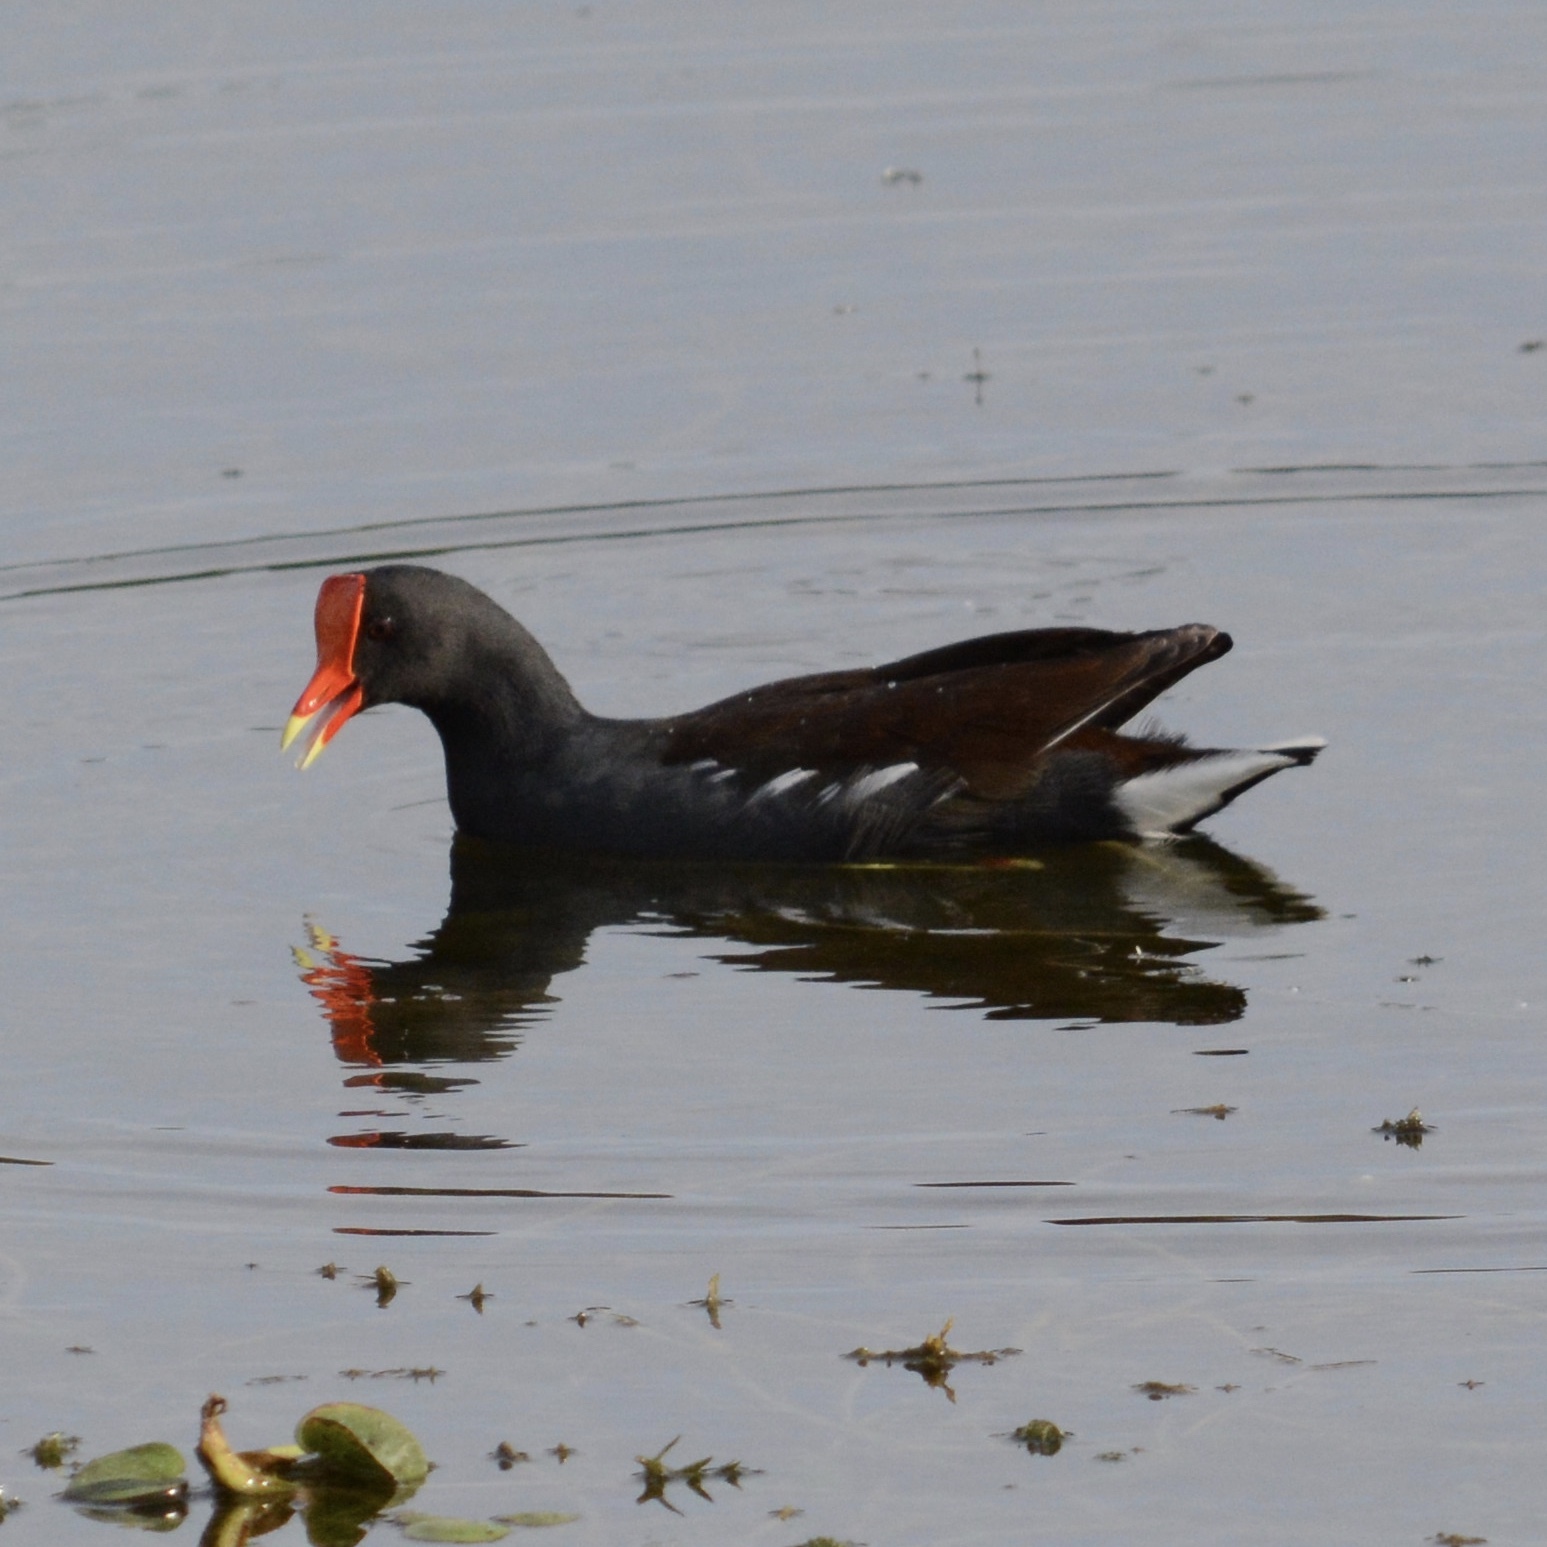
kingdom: Animalia
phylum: Chordata
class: Aves
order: Gruiformes
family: Rallidae
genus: Gallinula
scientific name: Gallinula chloropus
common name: Common moorhen
